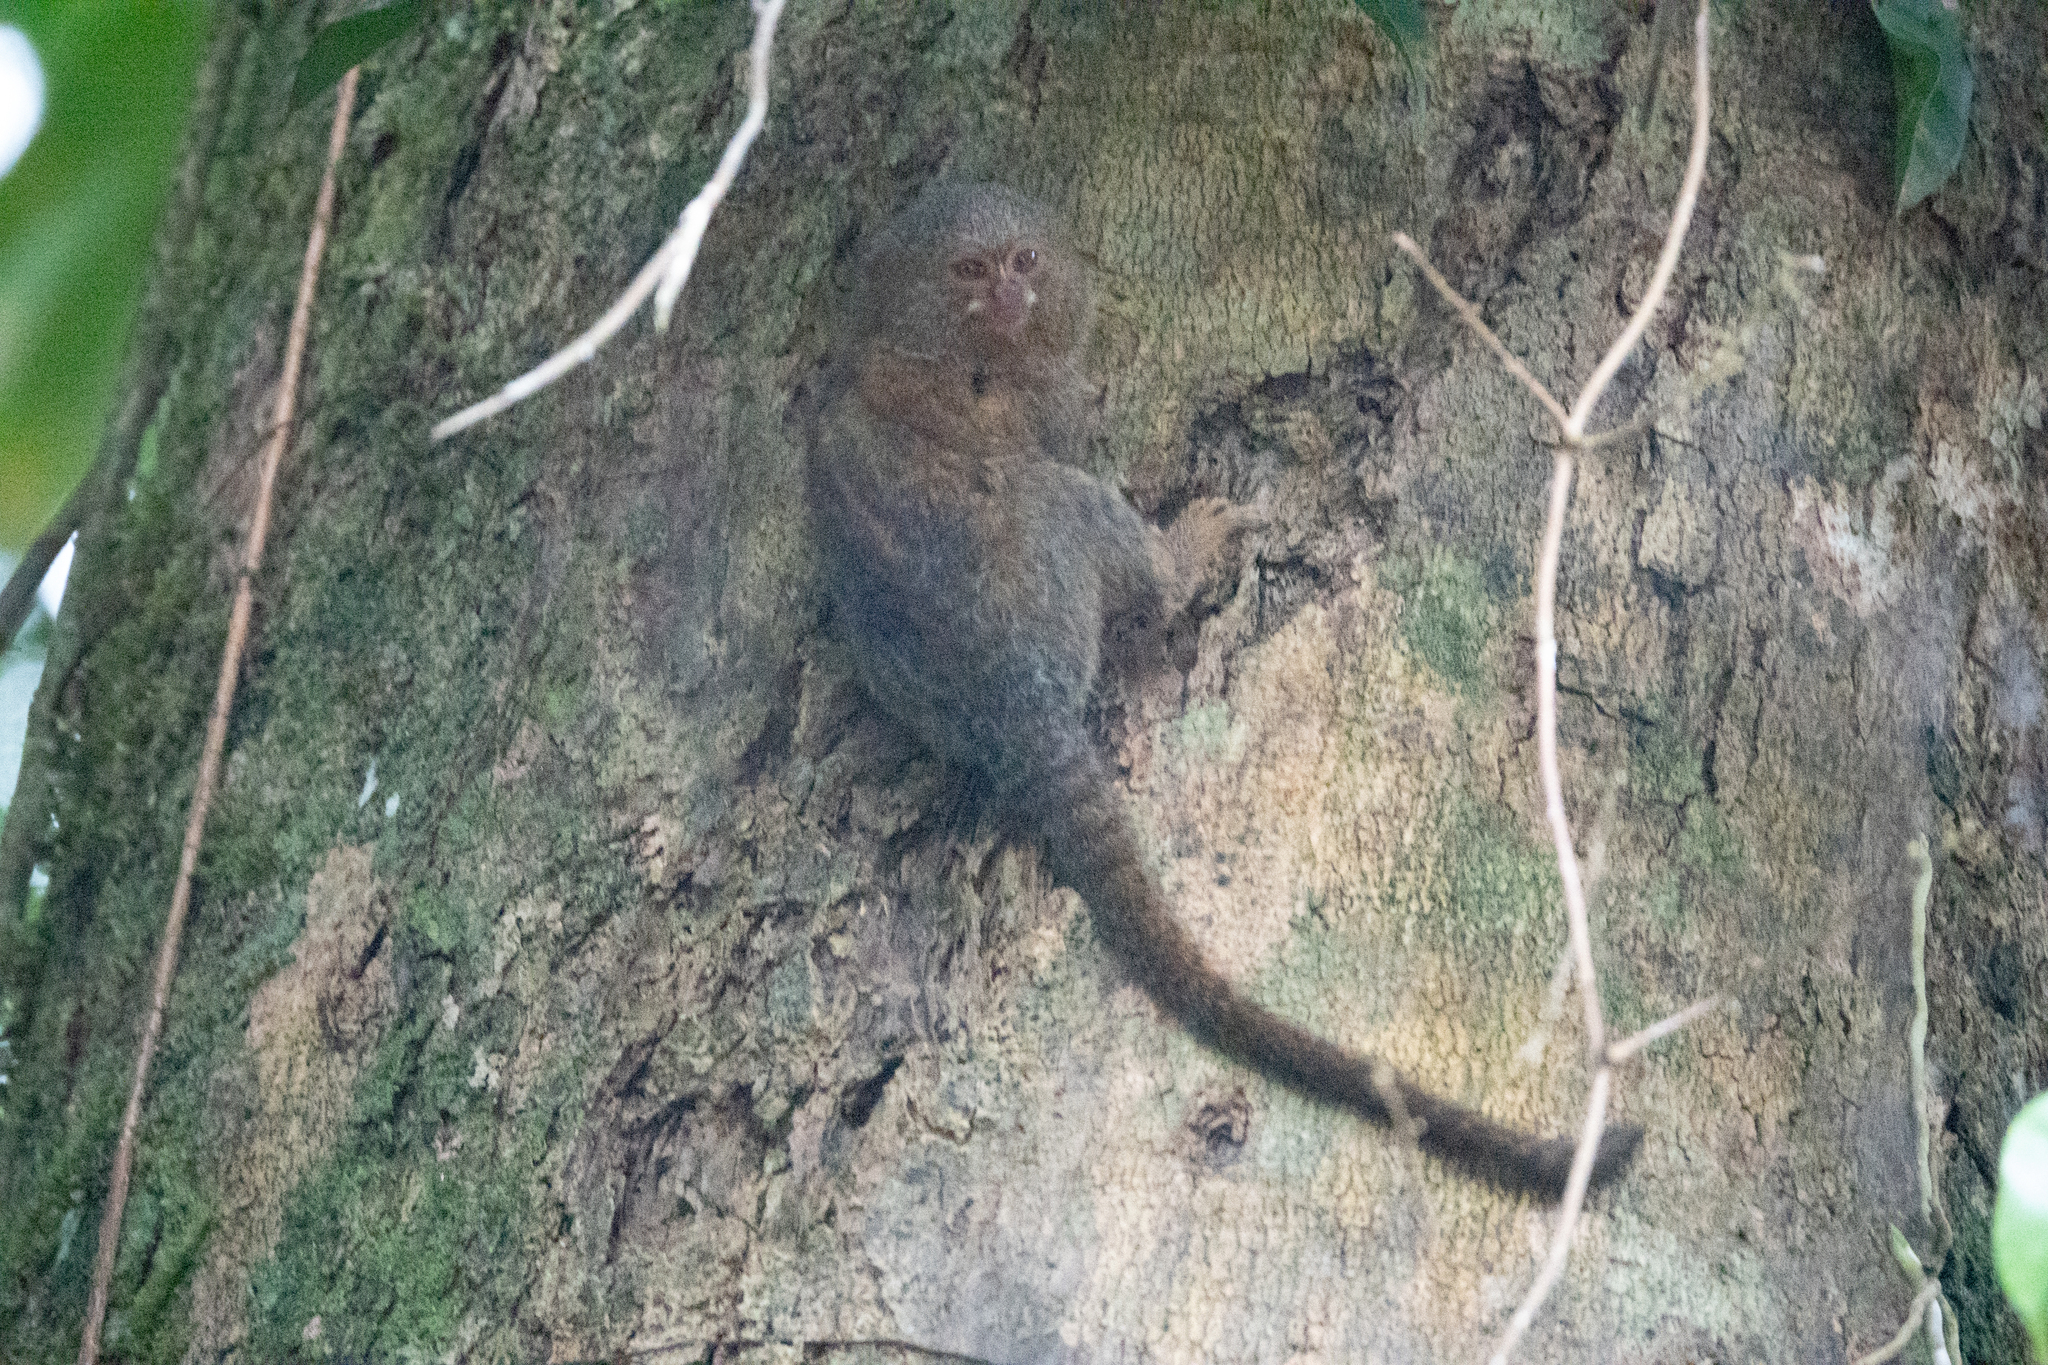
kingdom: Animalia
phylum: Chordata
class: Mammalia
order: Primates
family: Callitrichidae
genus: Cebuella
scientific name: Cebuella pygmaea
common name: Pygmy marmoset
